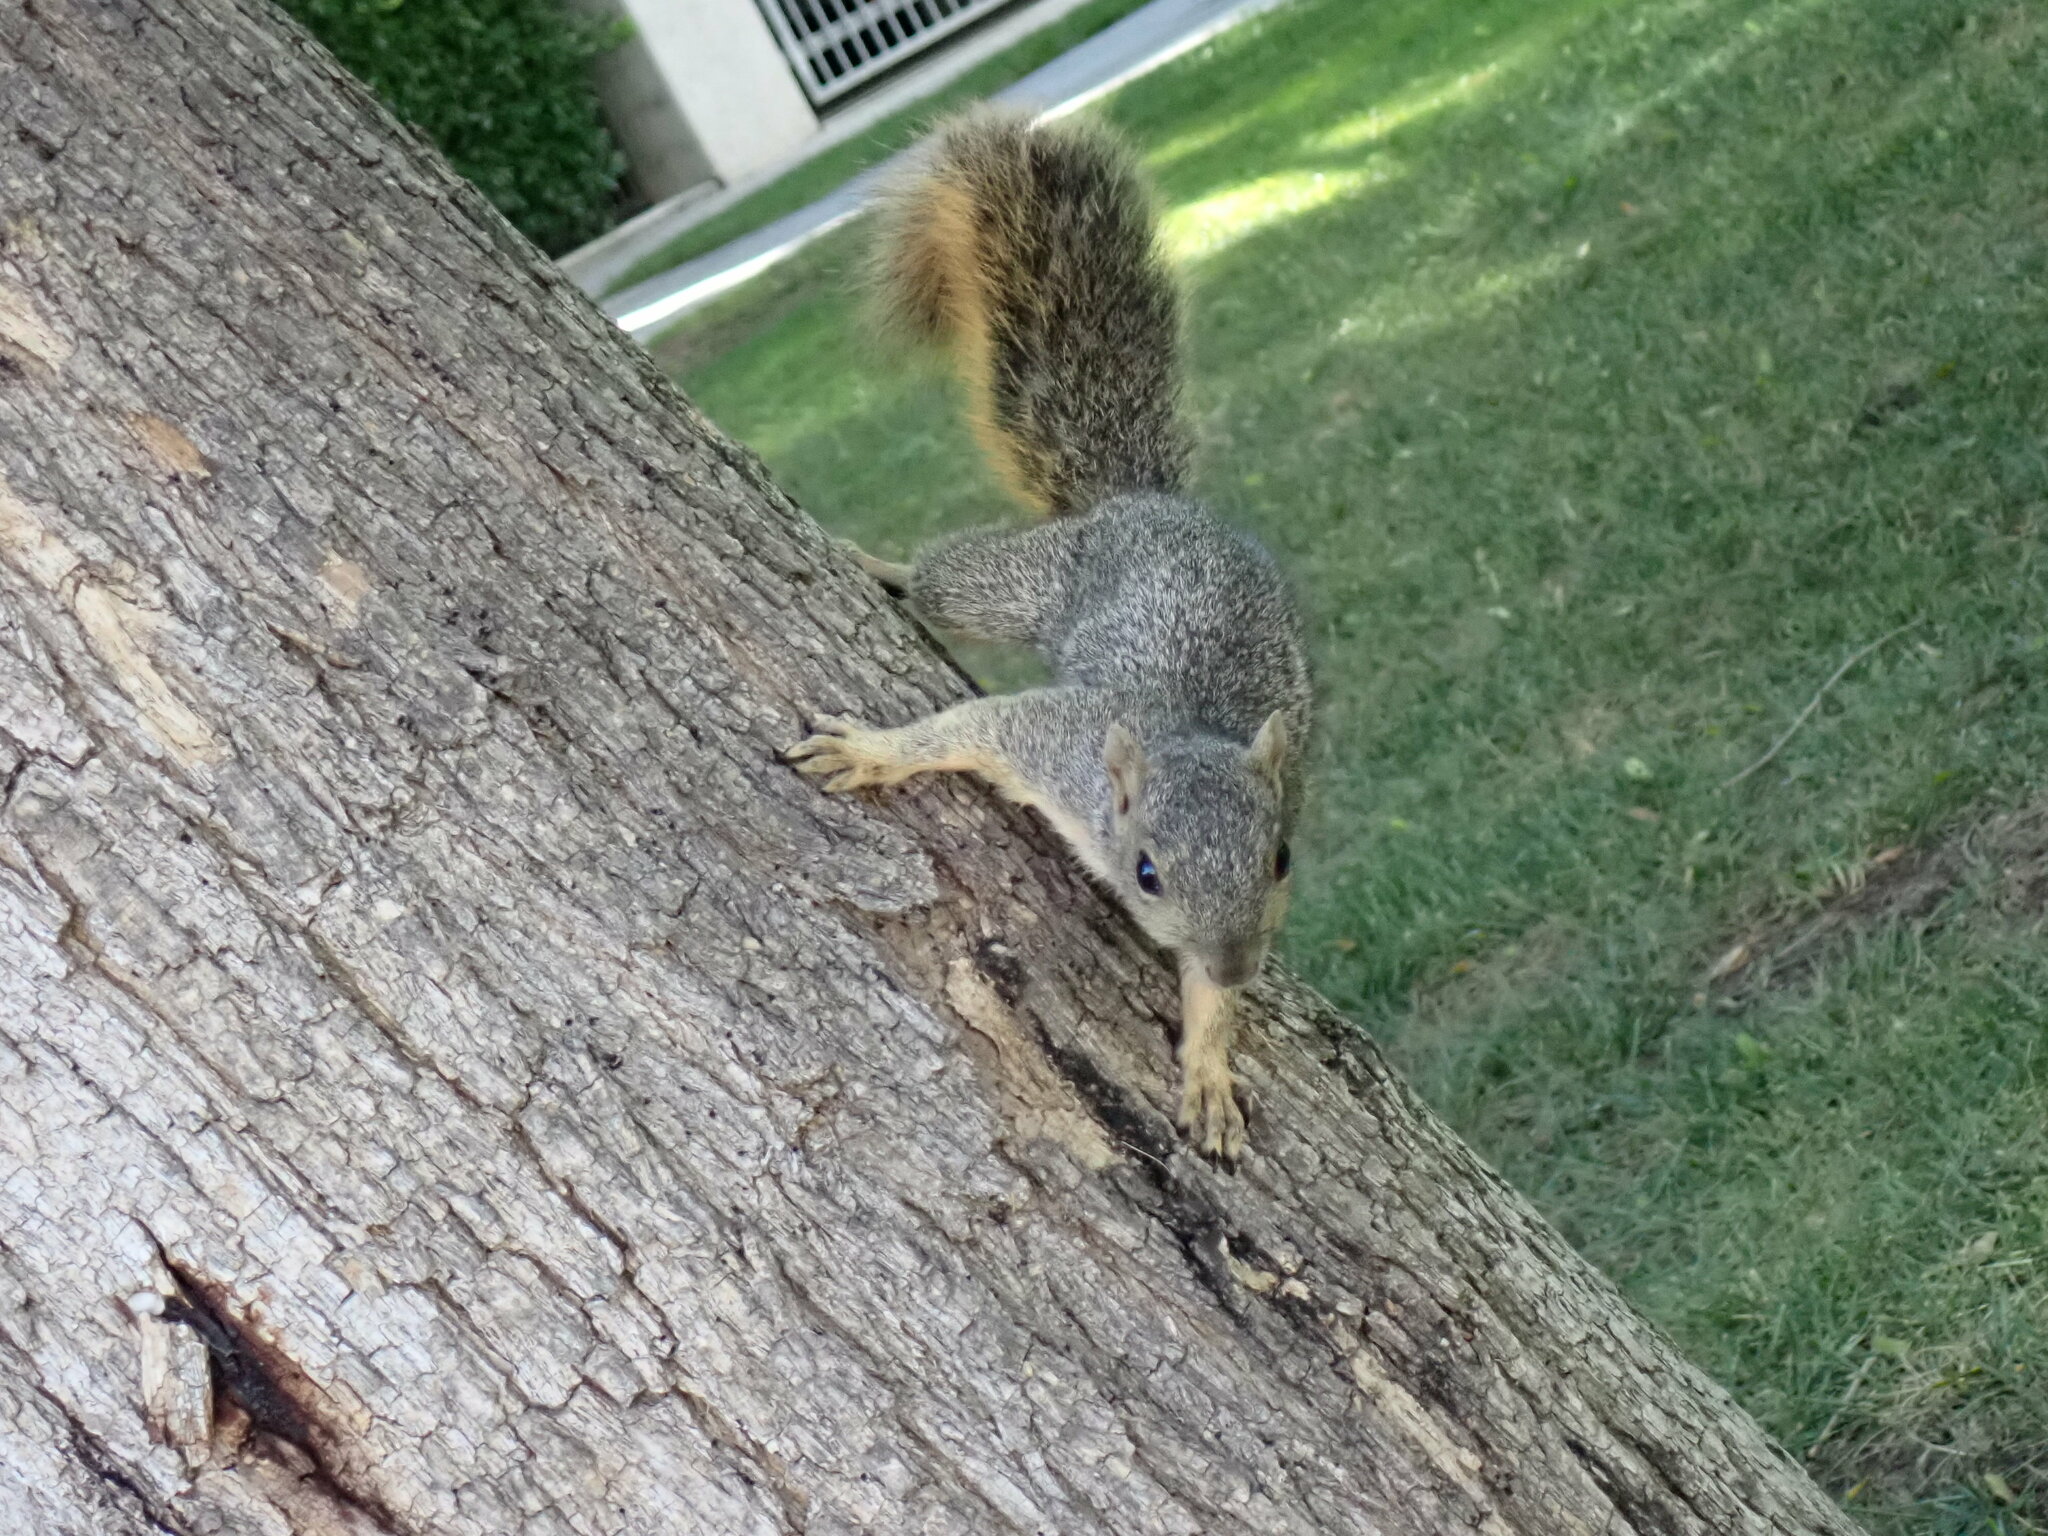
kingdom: Animalia
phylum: Chordata
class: Mammalia
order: Rodentia
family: Sciuridae
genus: Sciurus
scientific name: Sciurus niger
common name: Fox squirrel
